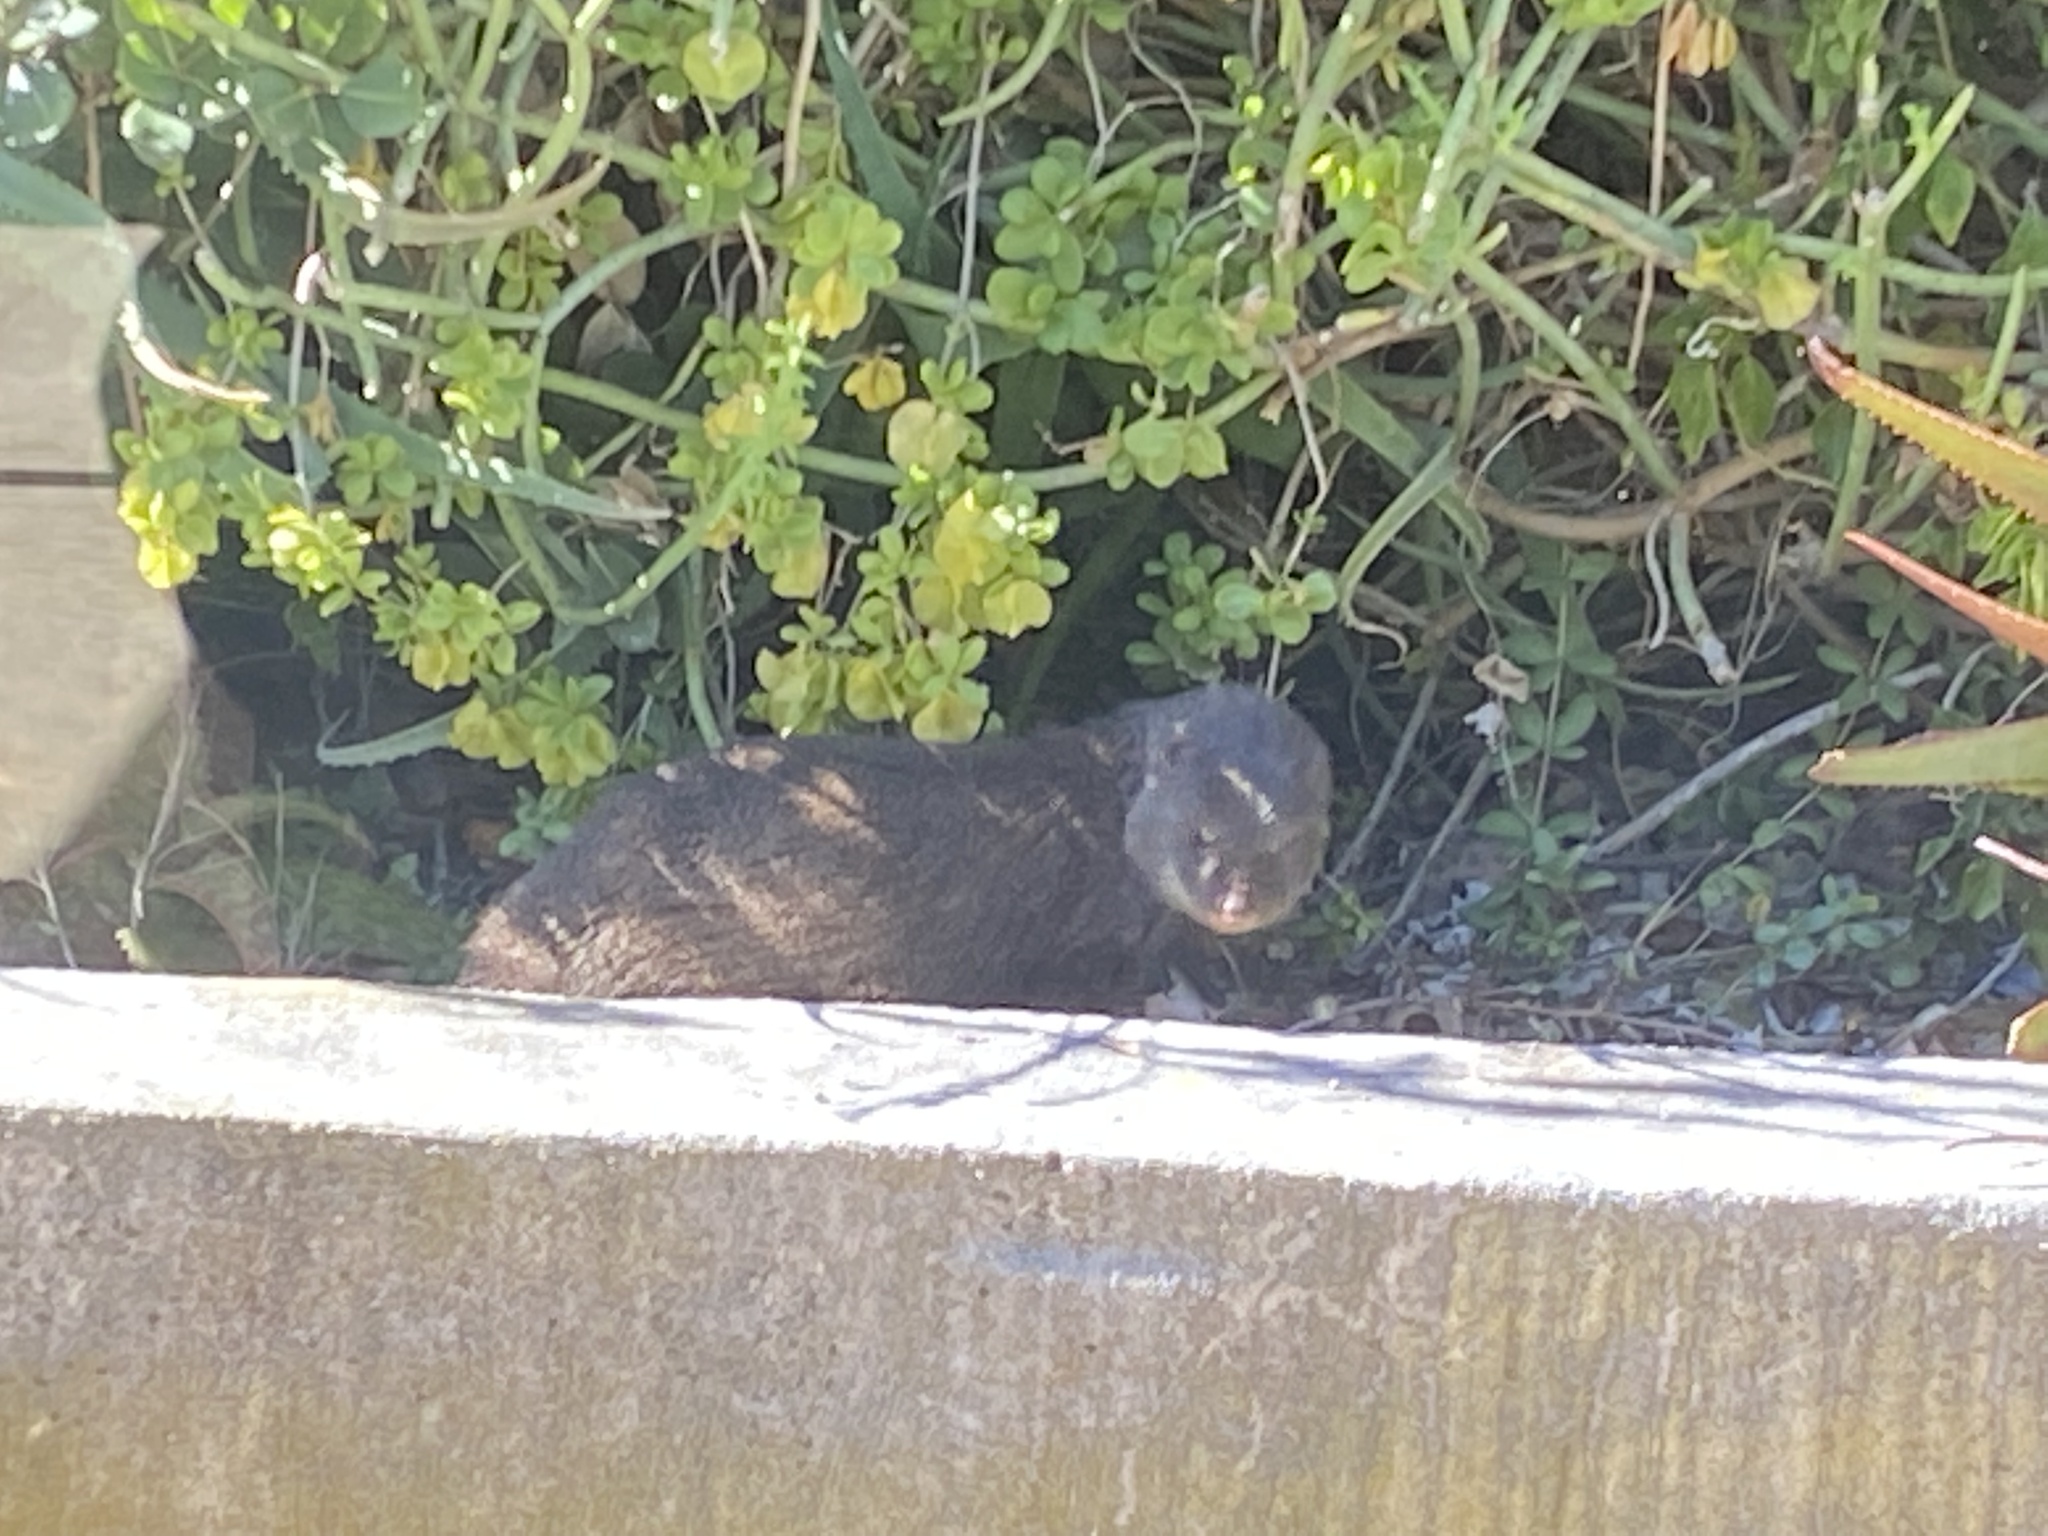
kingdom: Animalia
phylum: Chordata
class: Mammalia
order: Carnivora
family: Herpestidae
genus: Atilax
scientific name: Atilax paludinosus
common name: Marsh mongoose
